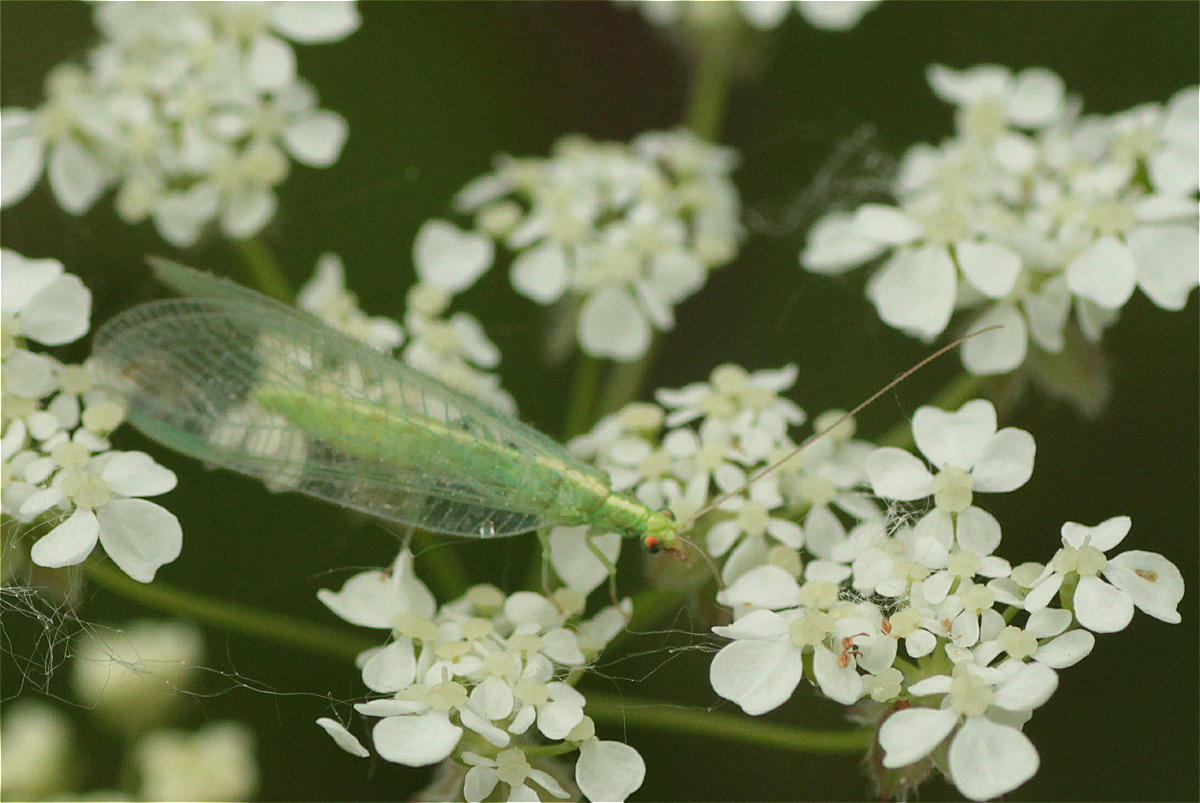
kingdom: Animalia
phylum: Arthropoda
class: Insecta
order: Neuroptera
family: Chrysopidae
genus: Chrysoperla
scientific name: Chrysoperla
